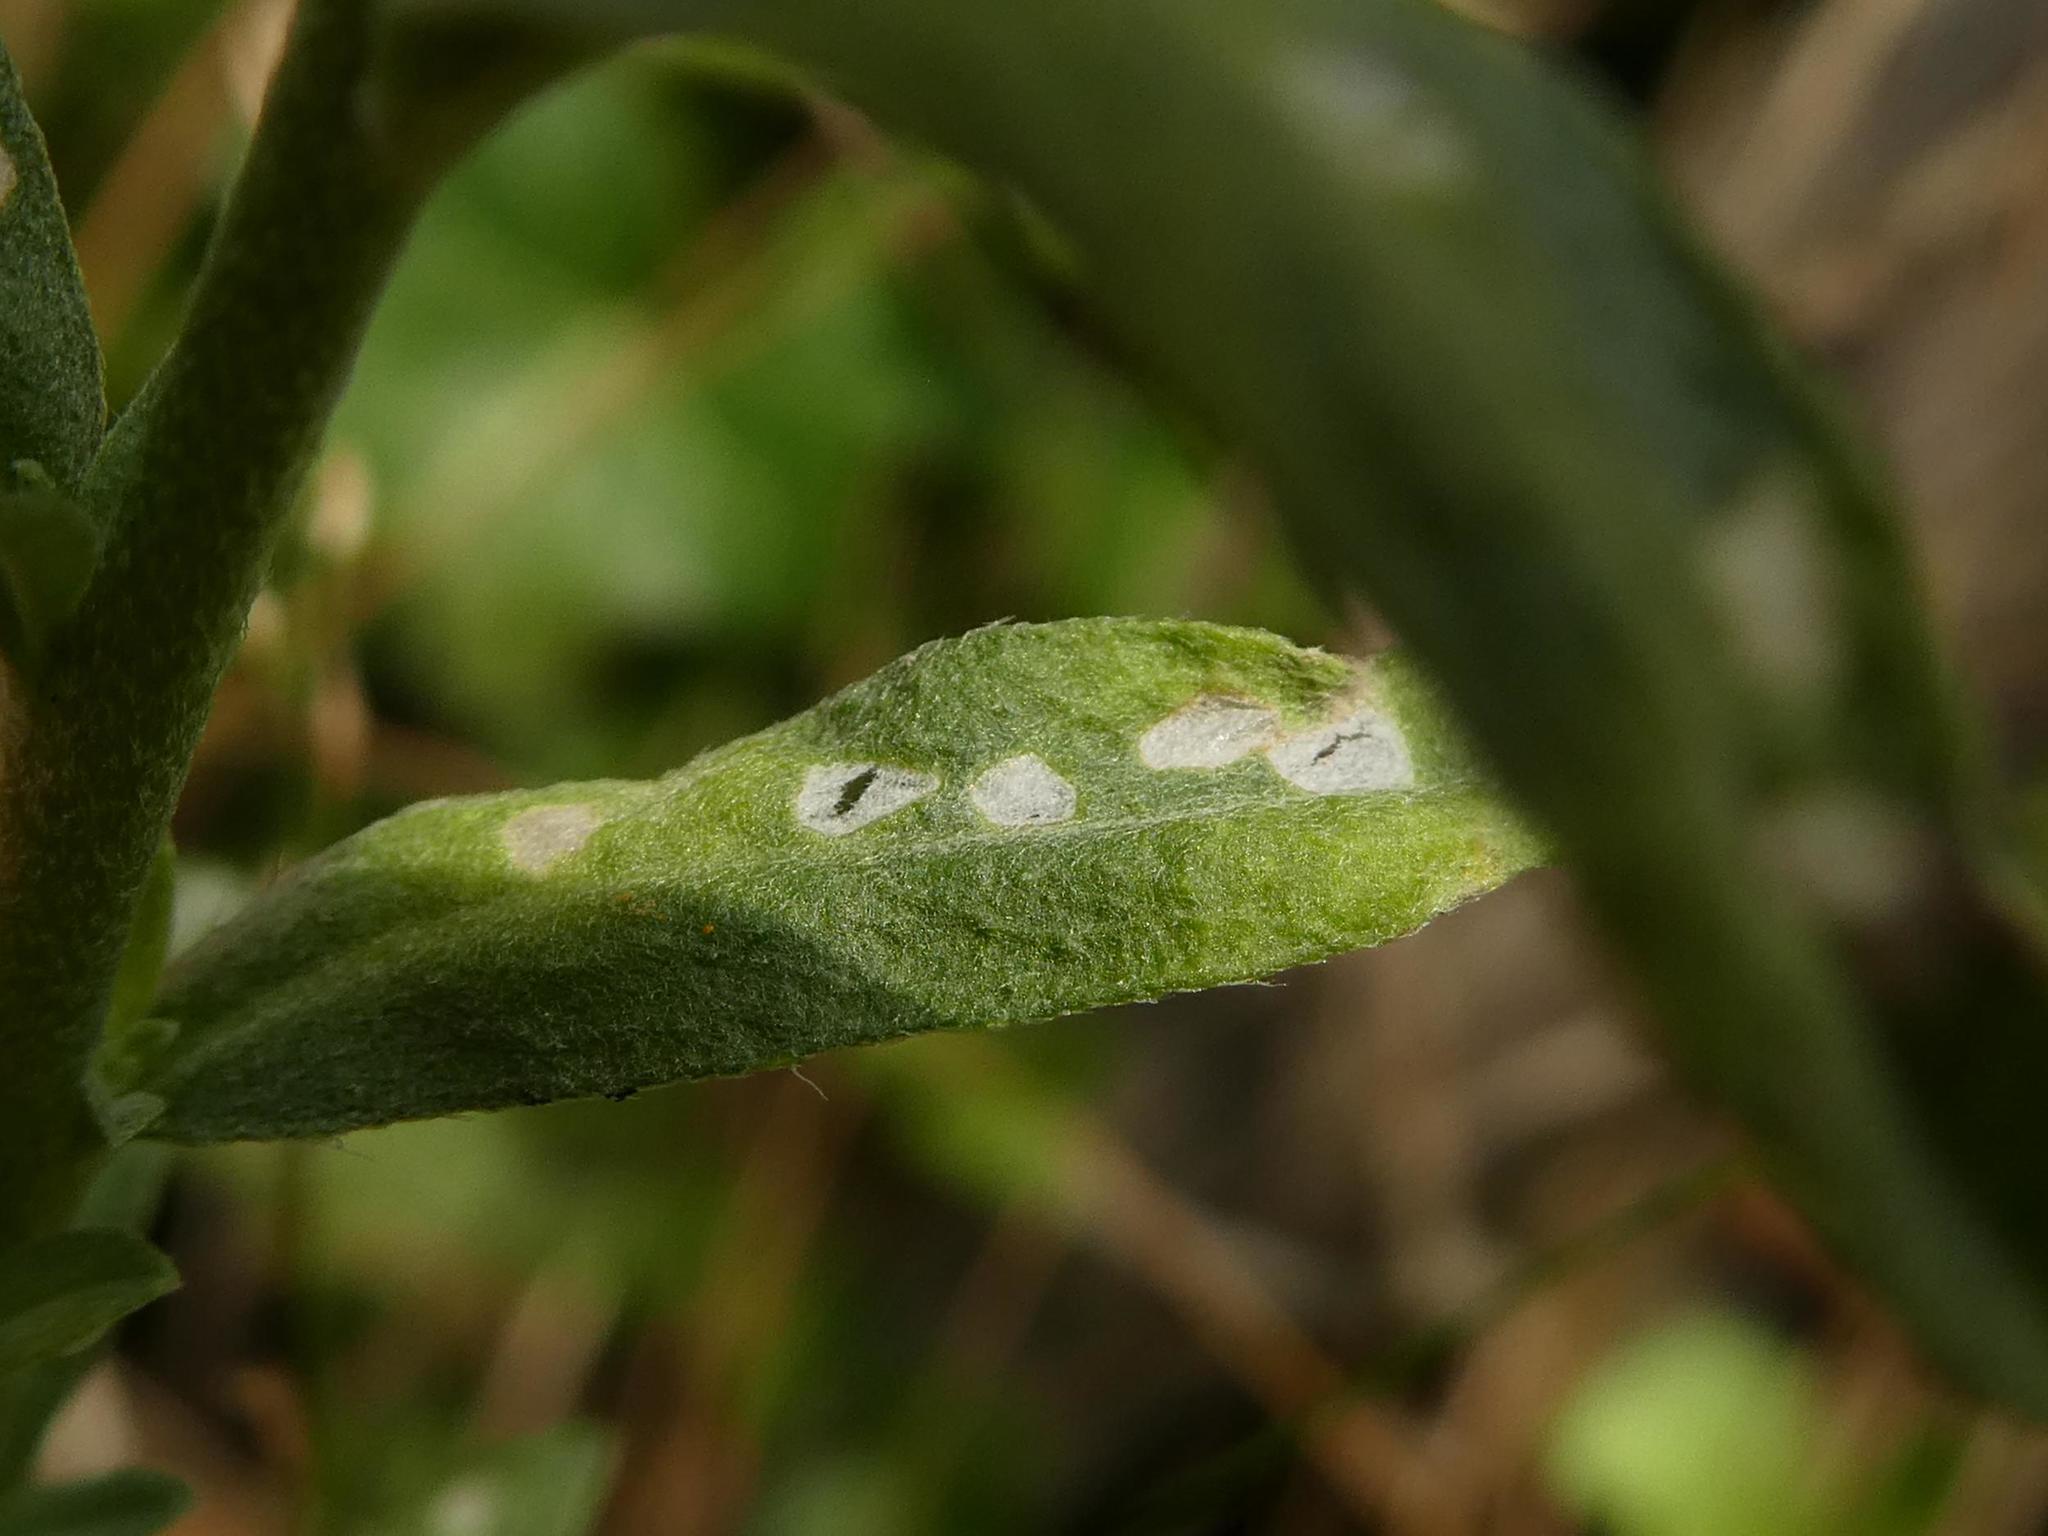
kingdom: Chromista
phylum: Oomycota
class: Peronosporea
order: Albuginales
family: Albuginaceae
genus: Albugo
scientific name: Albugo candida
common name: Crucifer white blister
